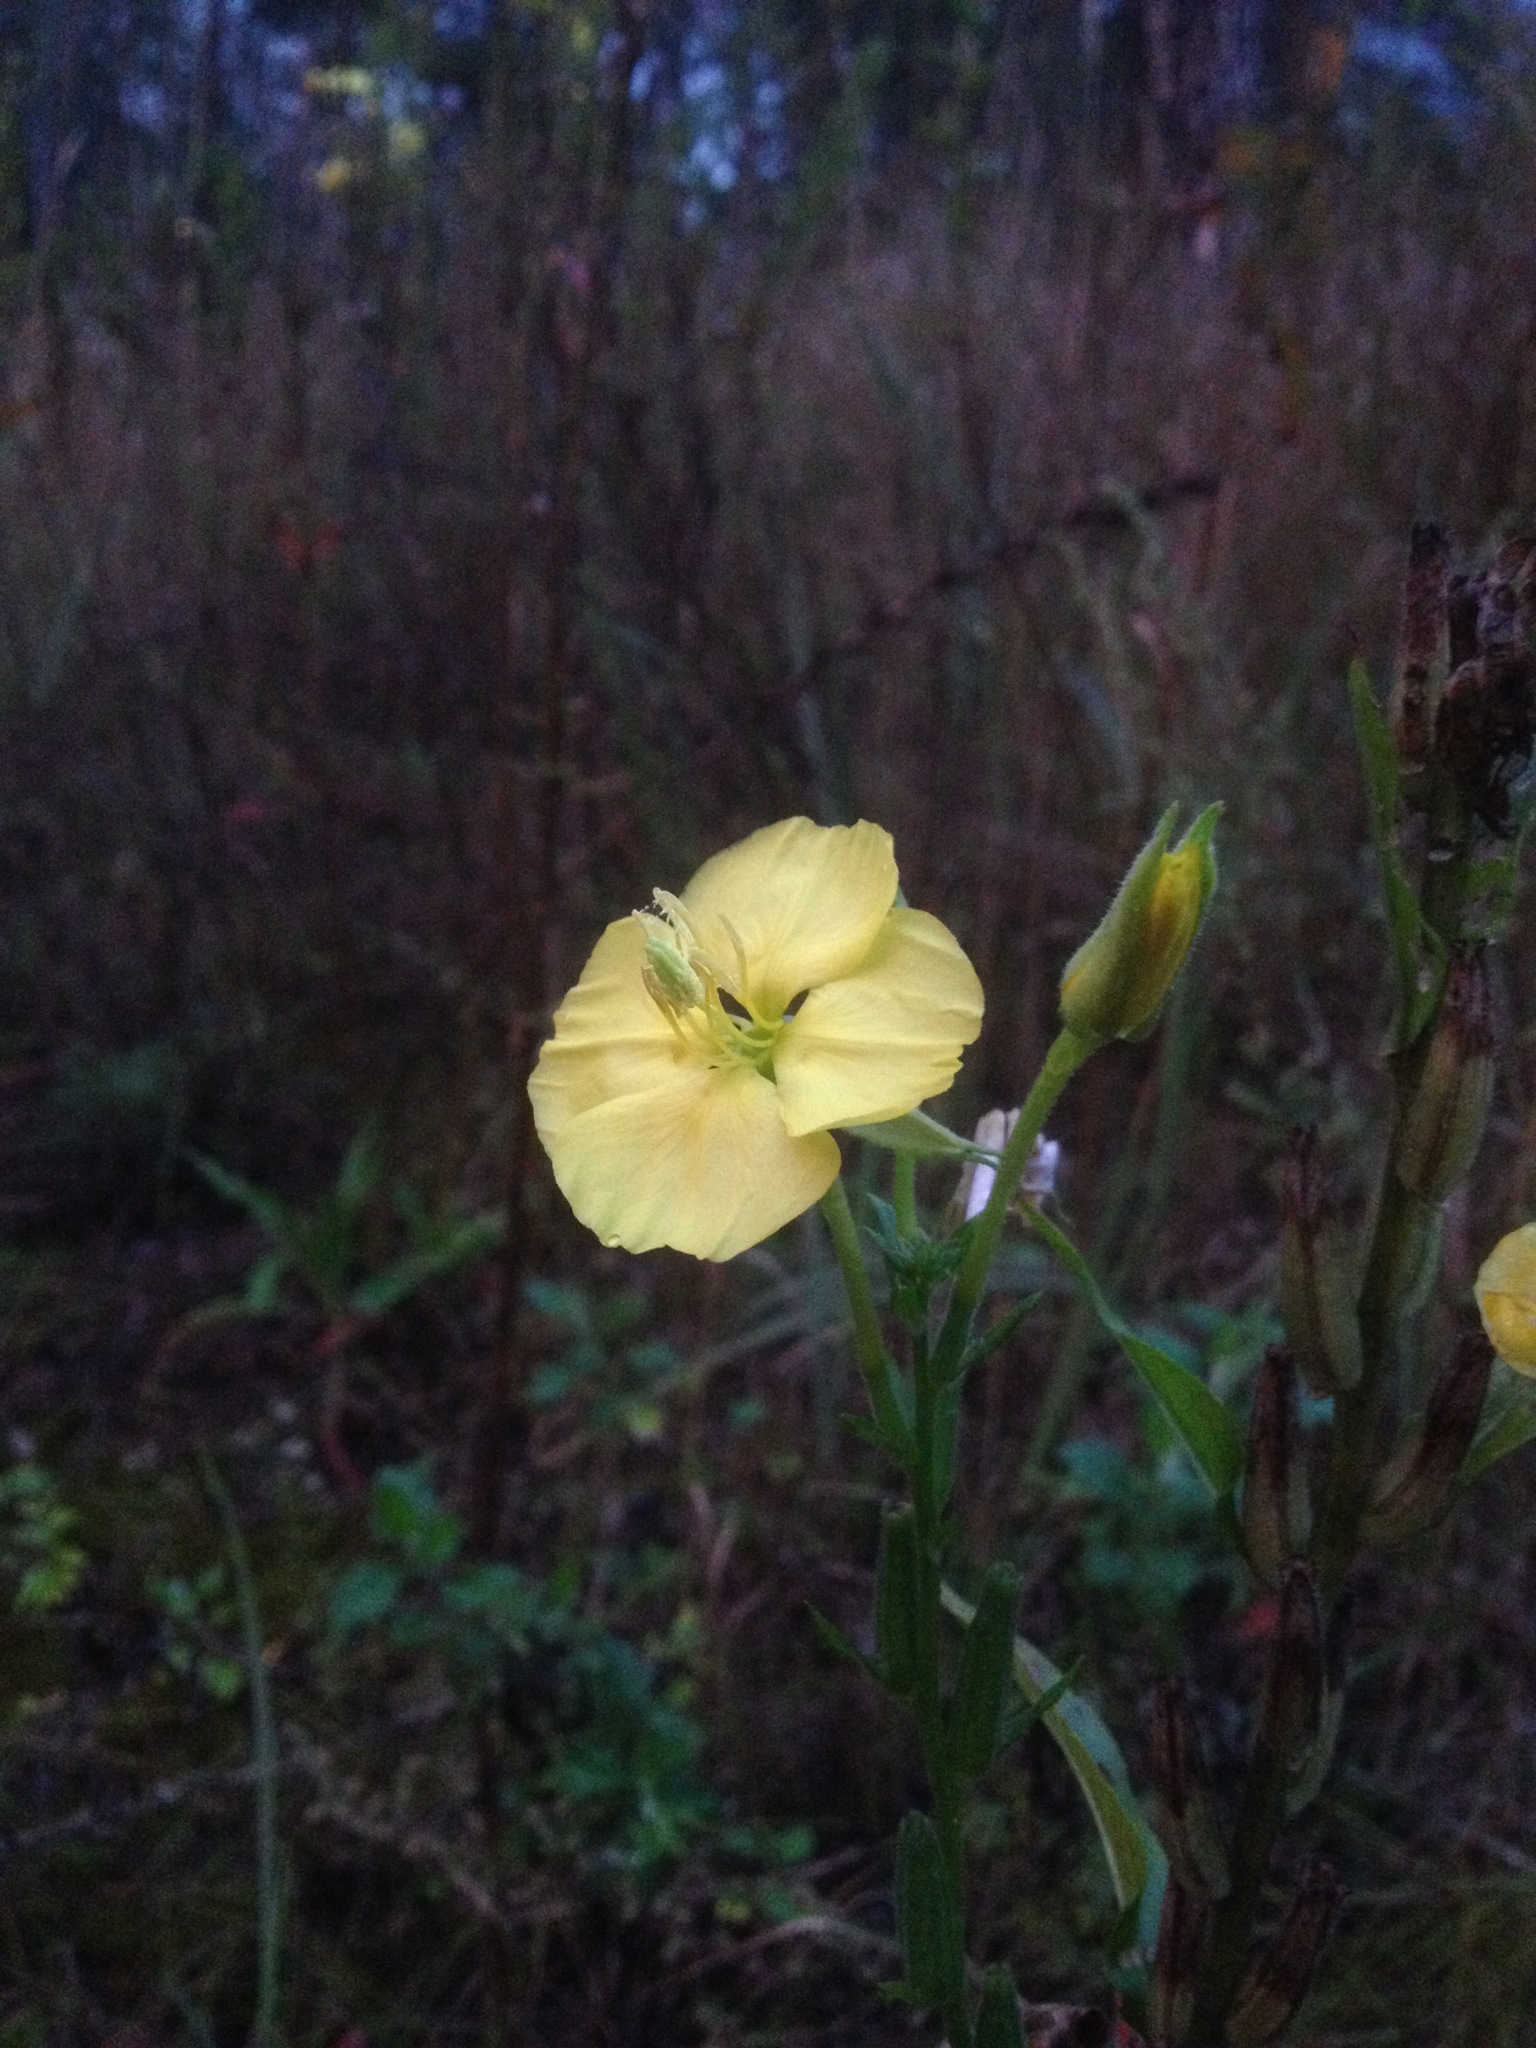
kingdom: Plantae
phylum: Tracheophyta
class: Magnoliopsida
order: Myrtales
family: Onagraceae
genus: Oenothera
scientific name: Oenothera biennis
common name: Common evening-primrose
